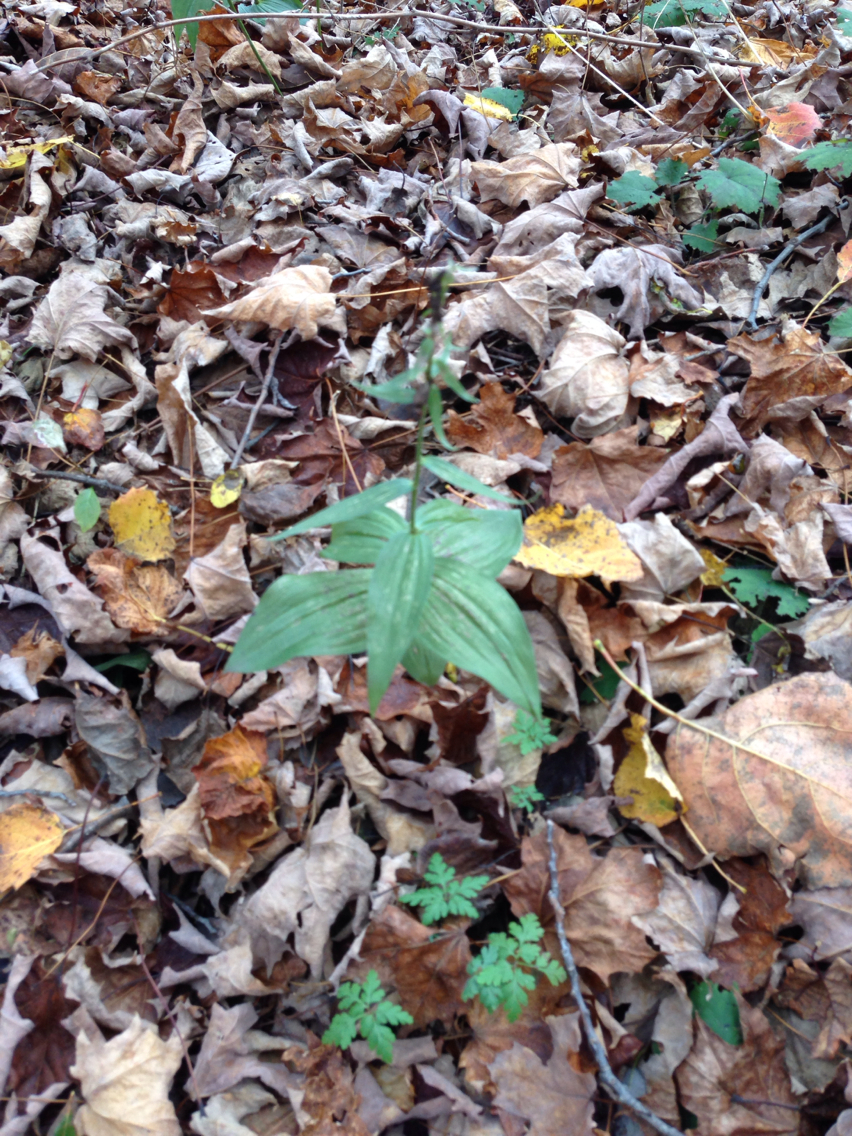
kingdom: Plantae
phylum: Tracheophyta
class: Liliopsida
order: Asparagales
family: Orchidaceae
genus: Epipactis
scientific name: Epipactis helleborine
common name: Broad-leaved helleborine
